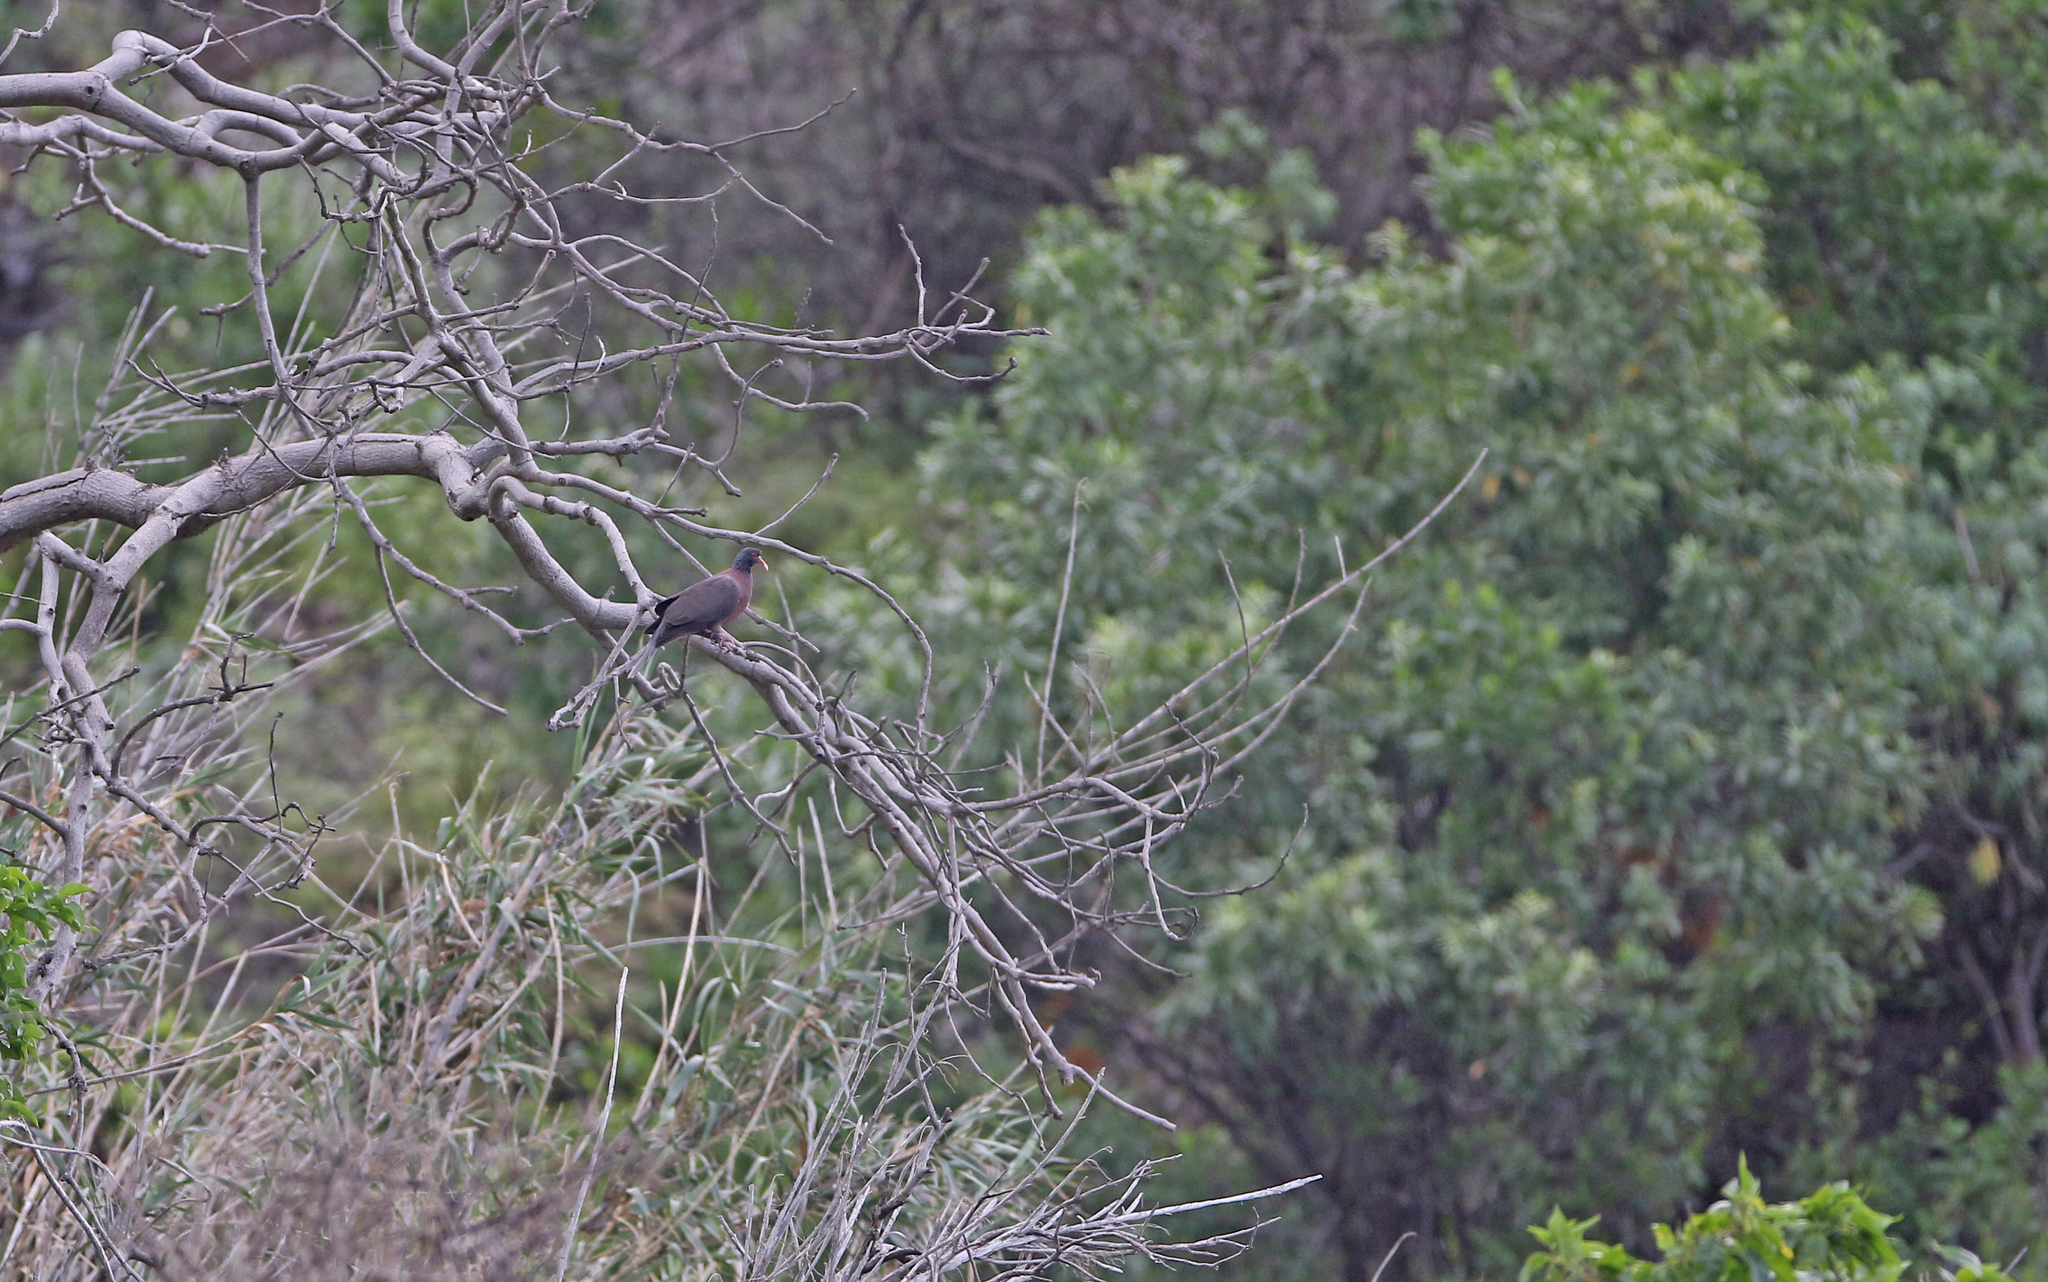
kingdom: Animalia
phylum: Chordata
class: Aves
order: Columbiformes
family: Columbidae
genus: Columba
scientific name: Columba junoniae
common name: Laurel pigeon
